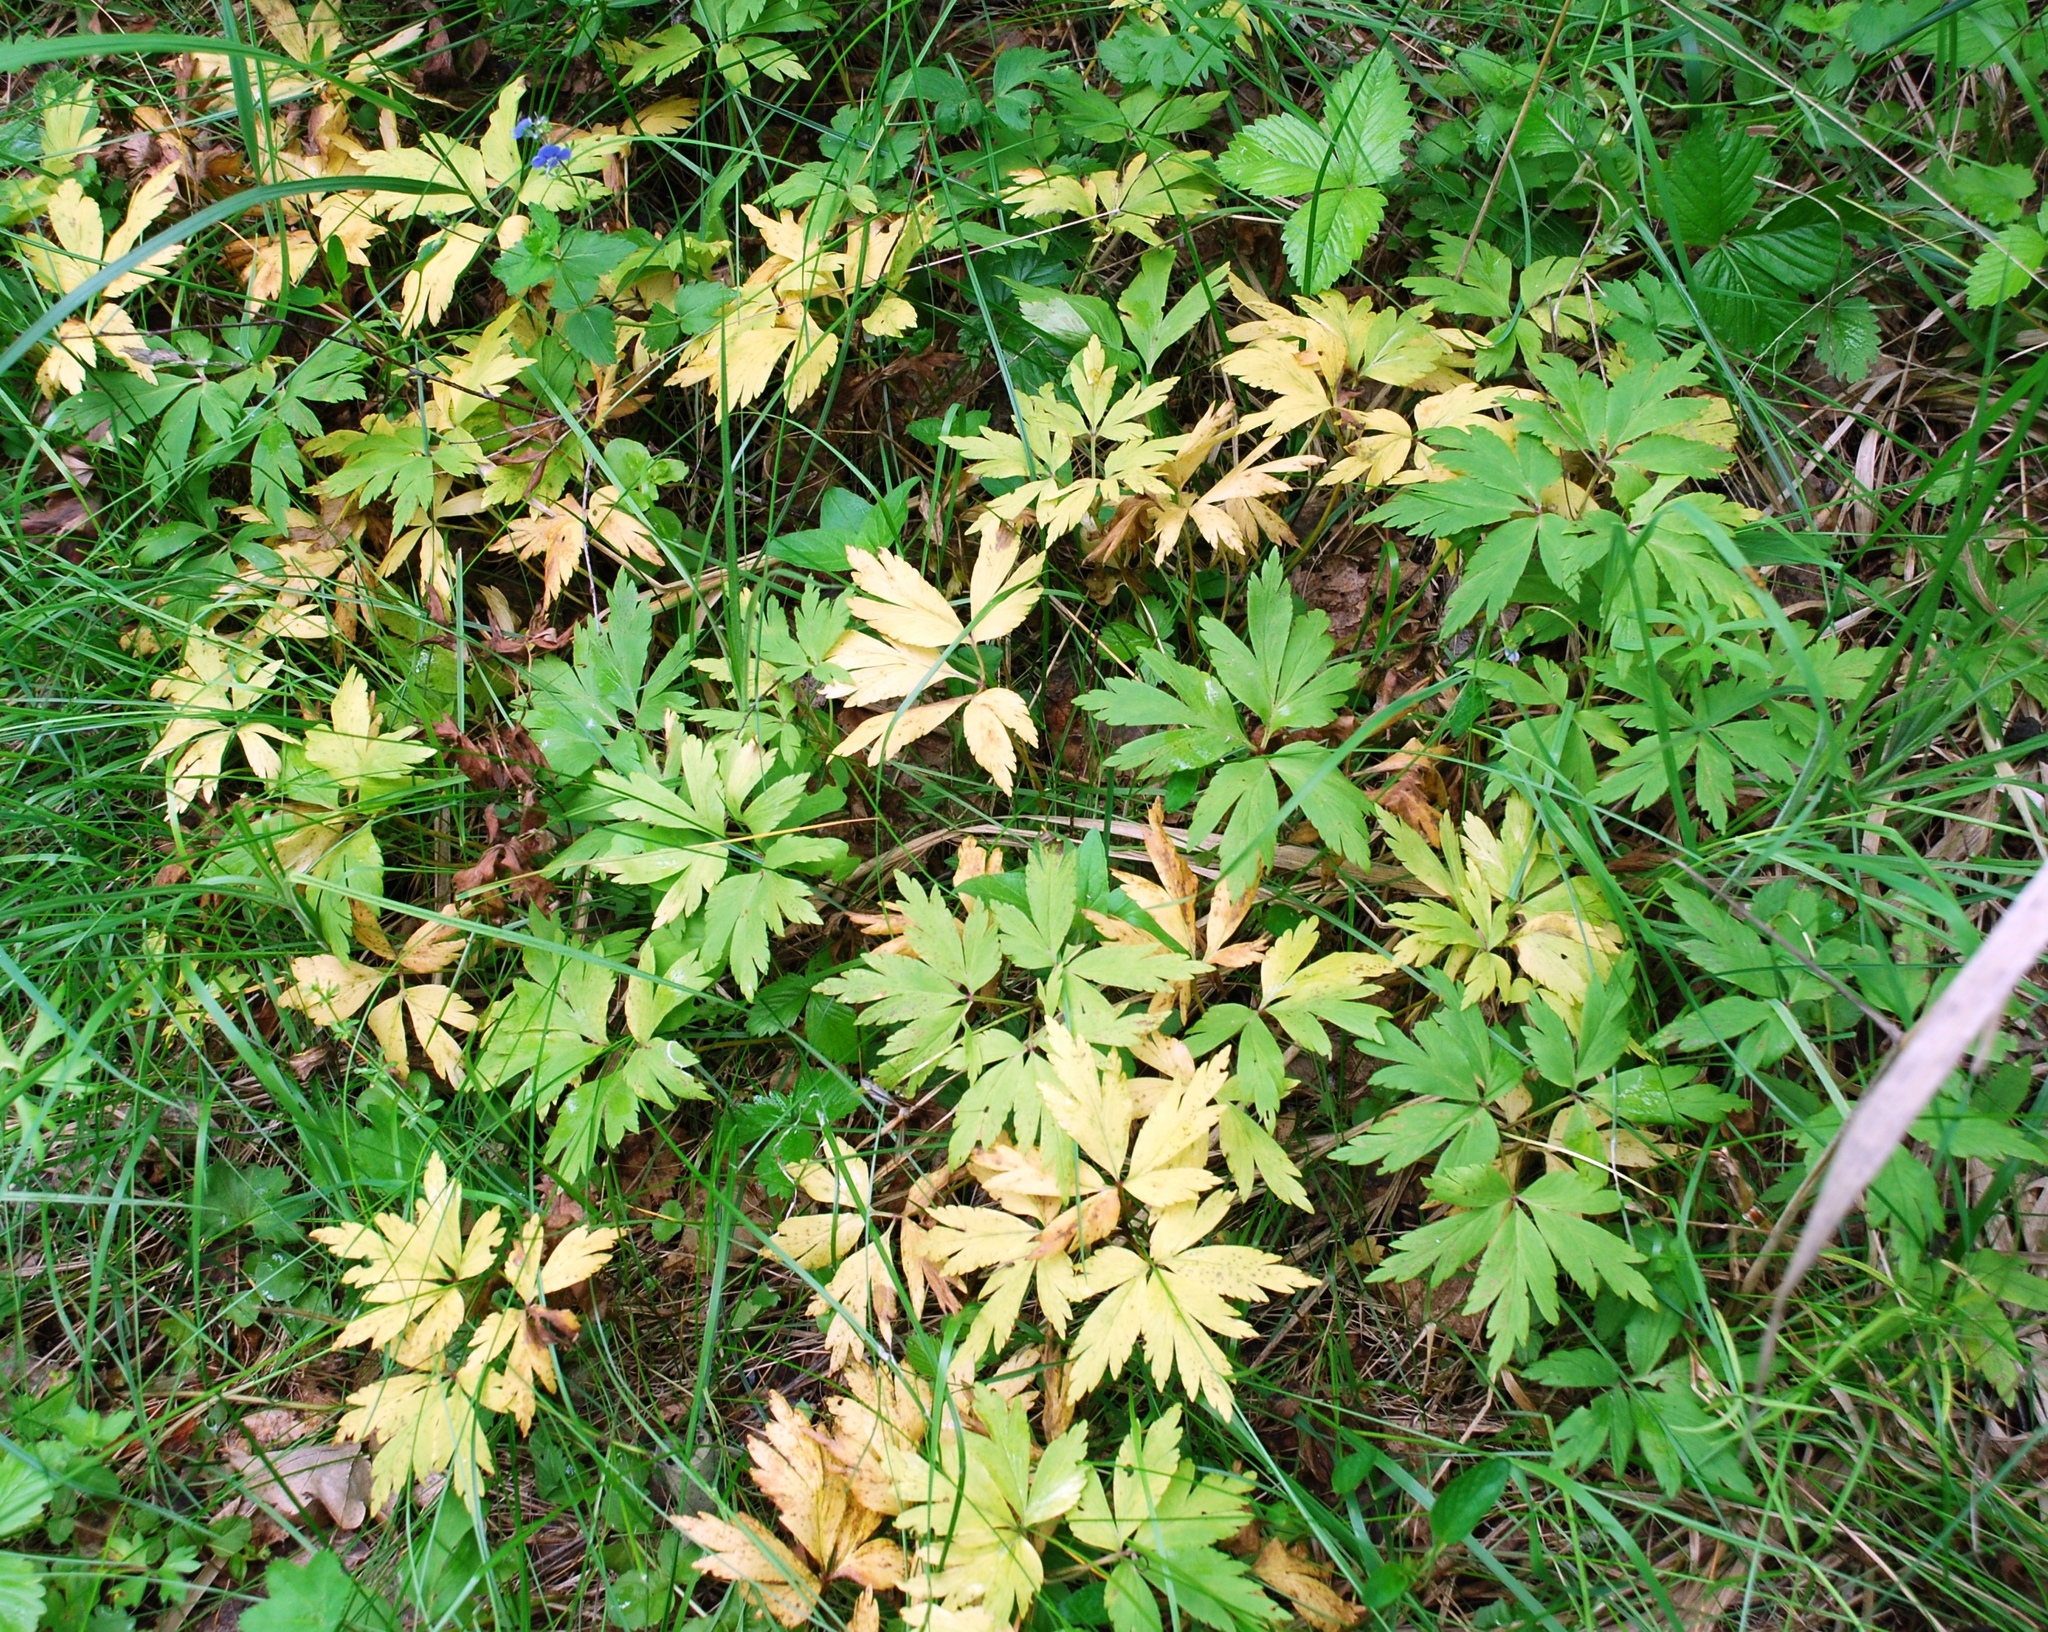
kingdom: Plantae
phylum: Tracheophyta
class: Magnoliopsida
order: Ranunculales
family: Ranunculaceae
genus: Anemone
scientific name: Anemone nemorosa
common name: Wood anemone
